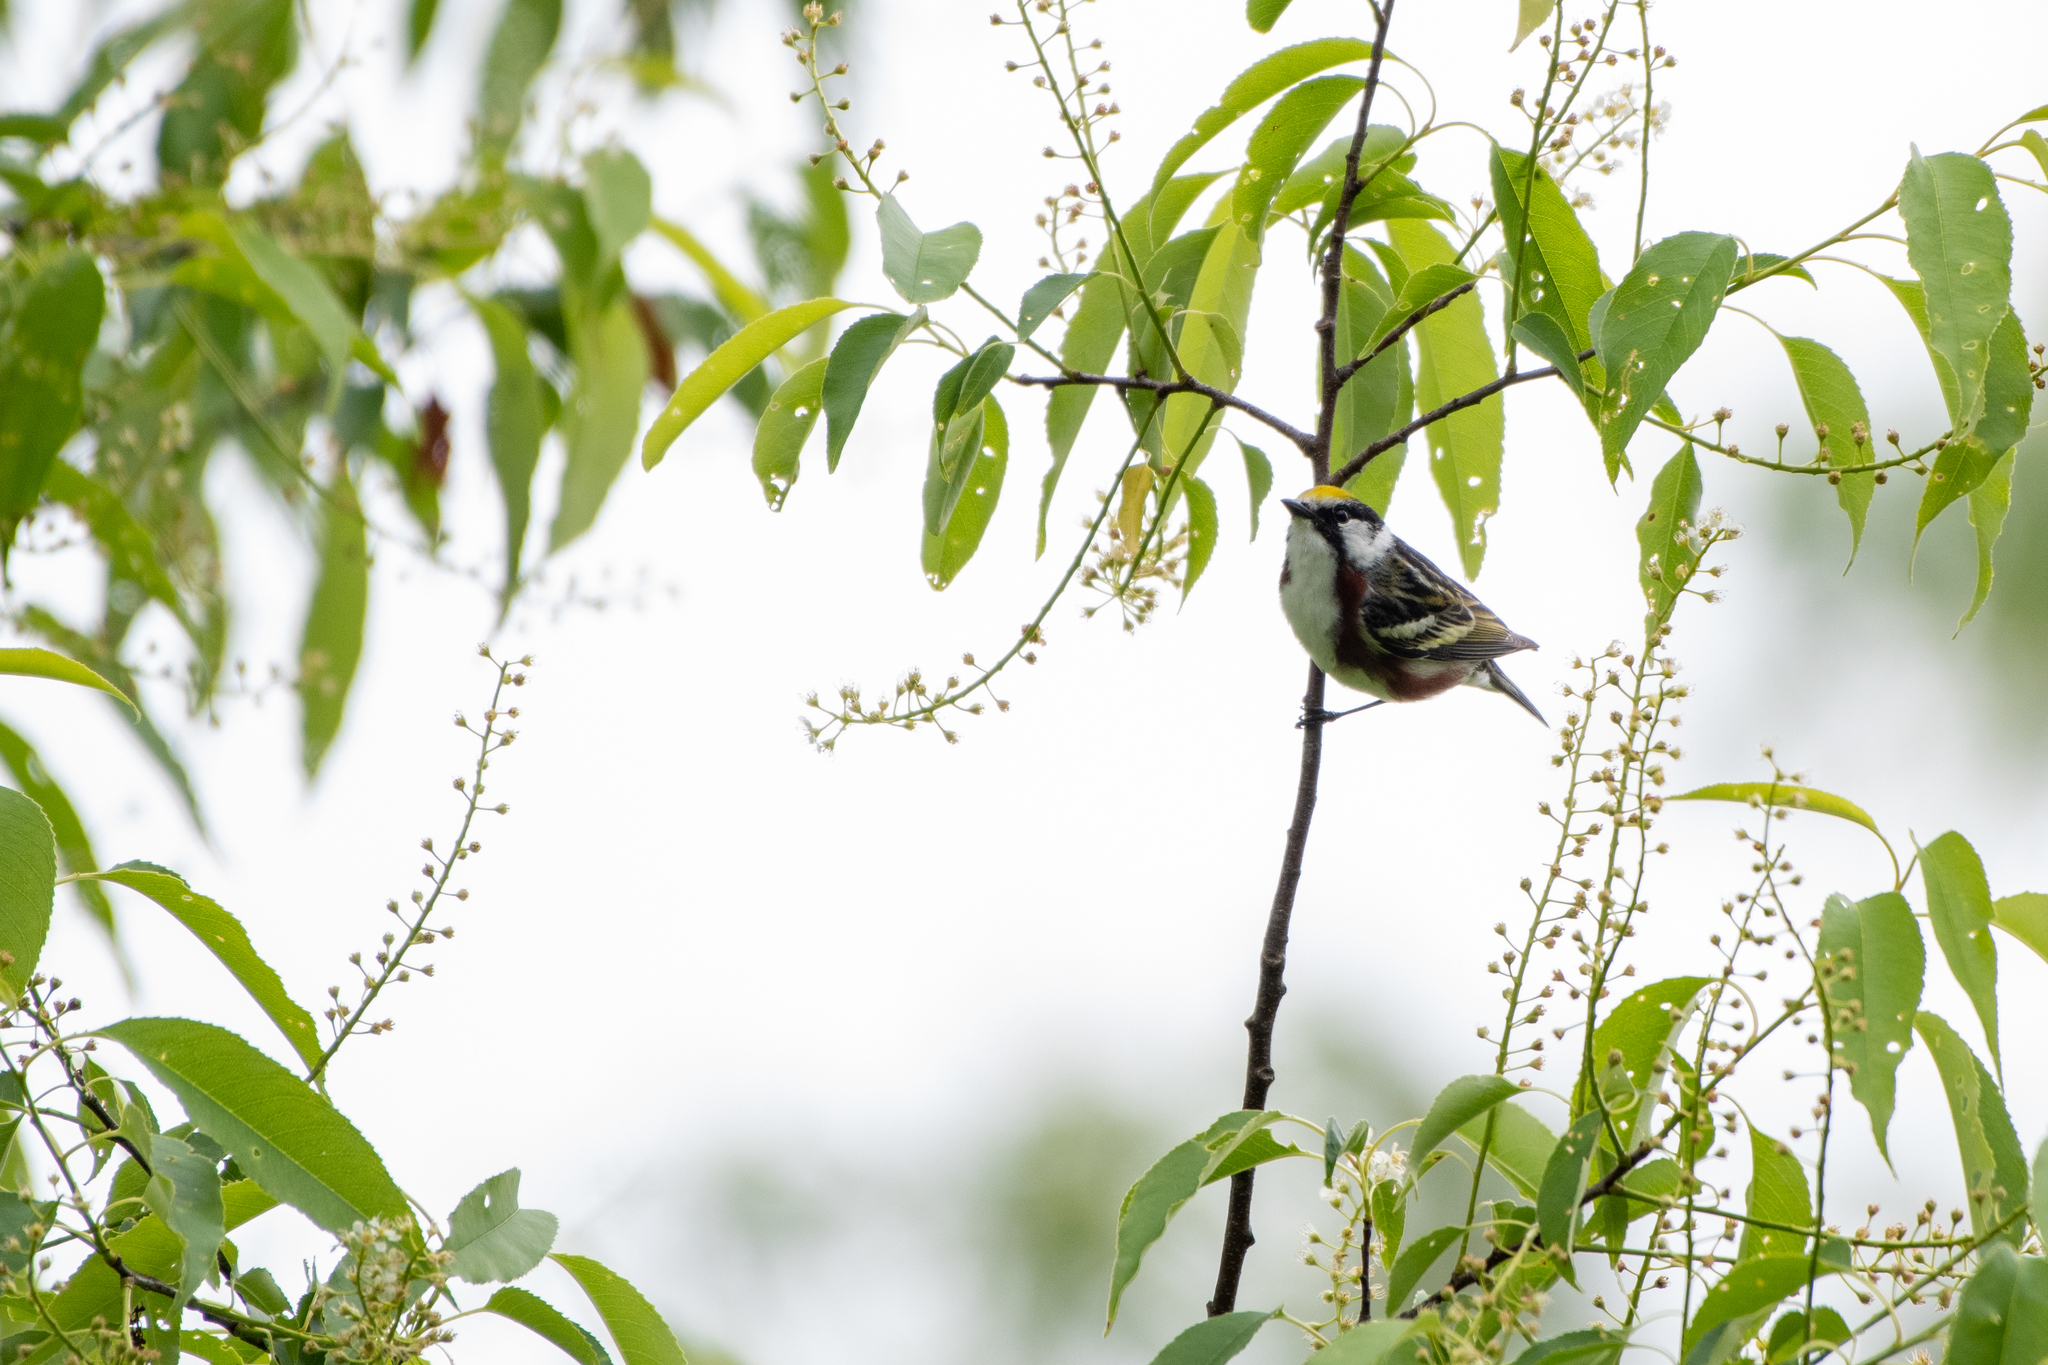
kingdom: Animalia
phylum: Chordata
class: Aves
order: Passeriformes
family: Parulidae
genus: Setophaga
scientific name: Setophaga pensylvanica
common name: Chestnut-sided warbler
